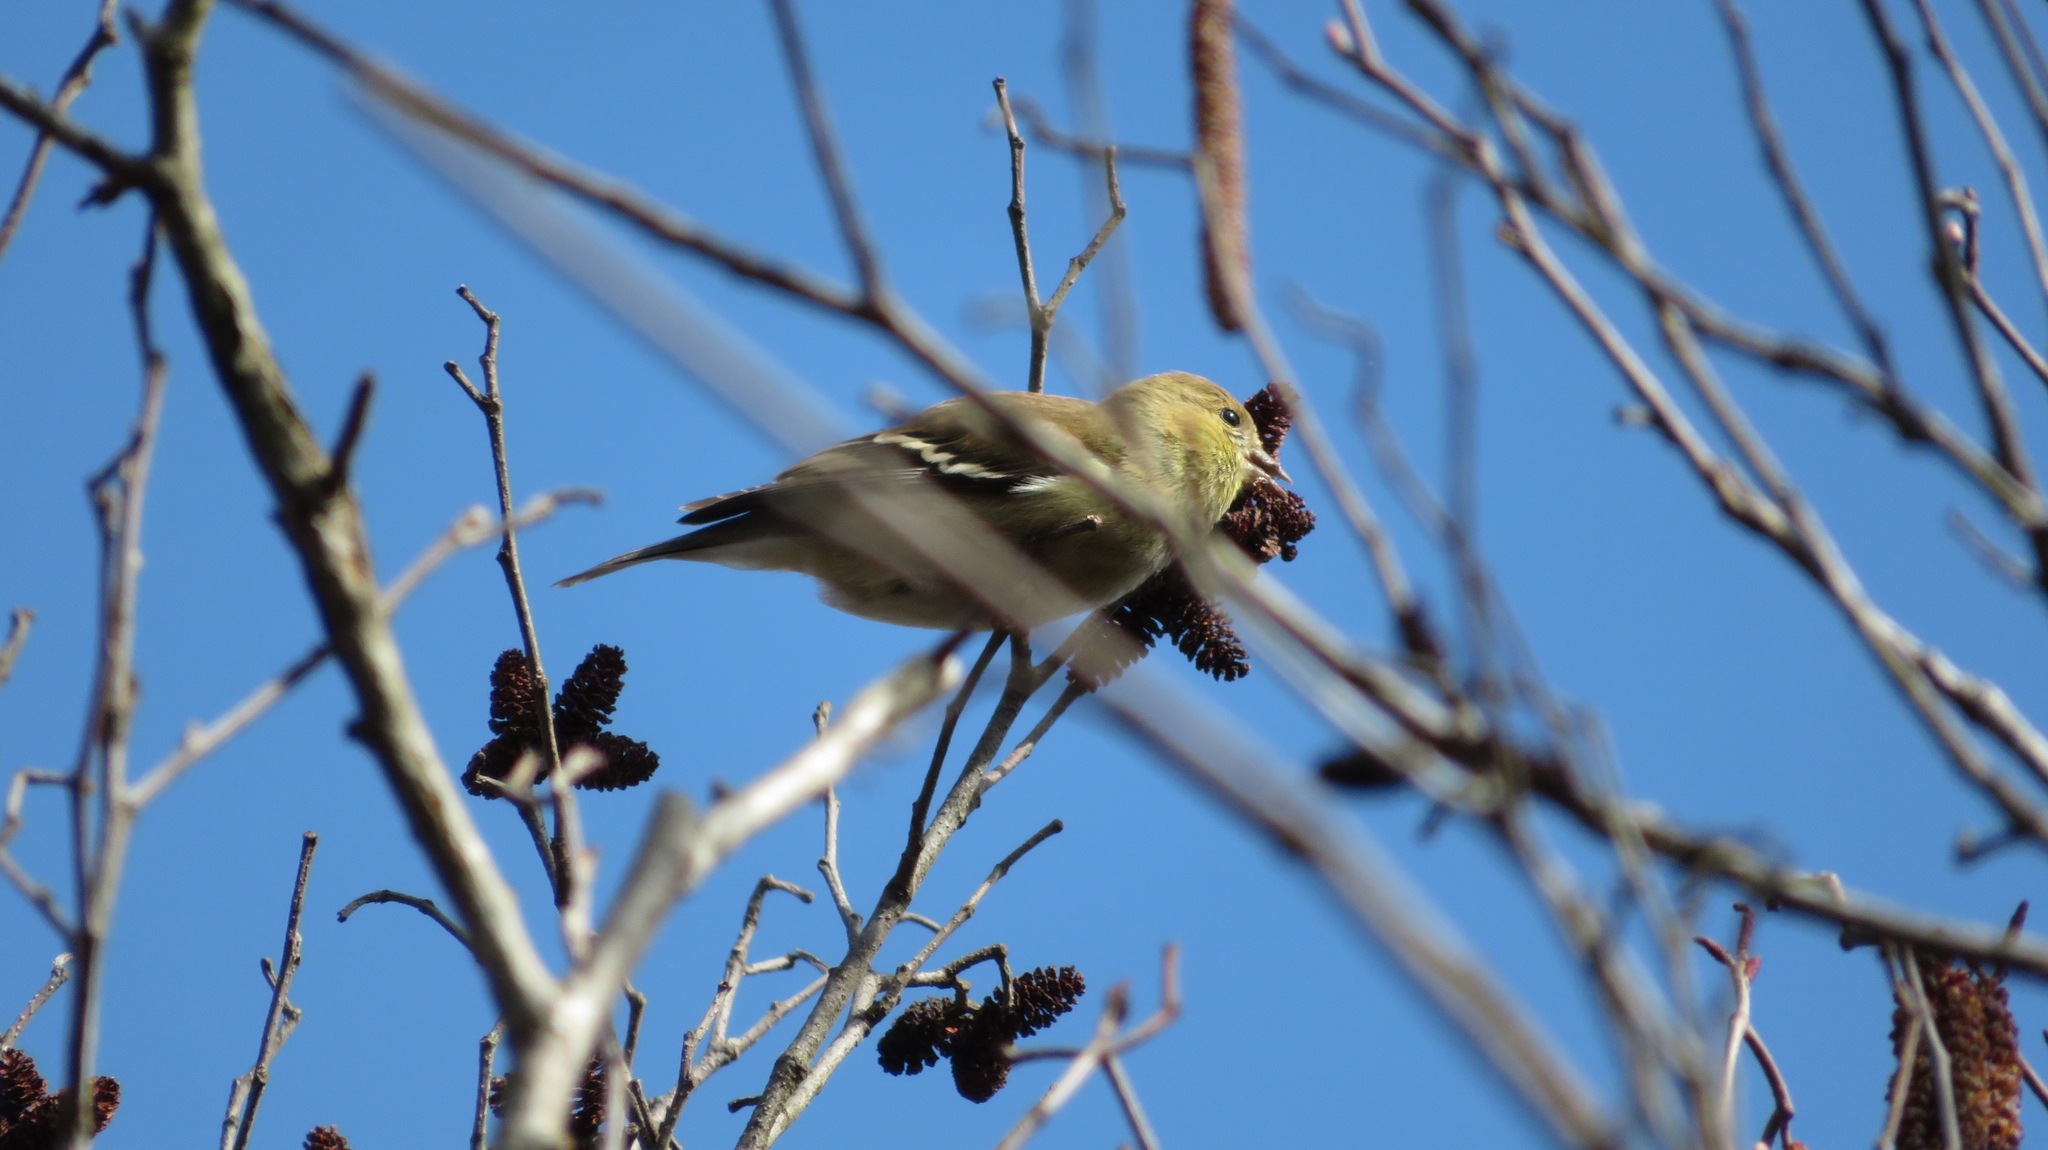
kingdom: Animalia
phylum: Chordata
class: Aves
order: Passeriformes
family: Fringillidae
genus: Spinus
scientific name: Spinus tristis
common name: American goldfinch
